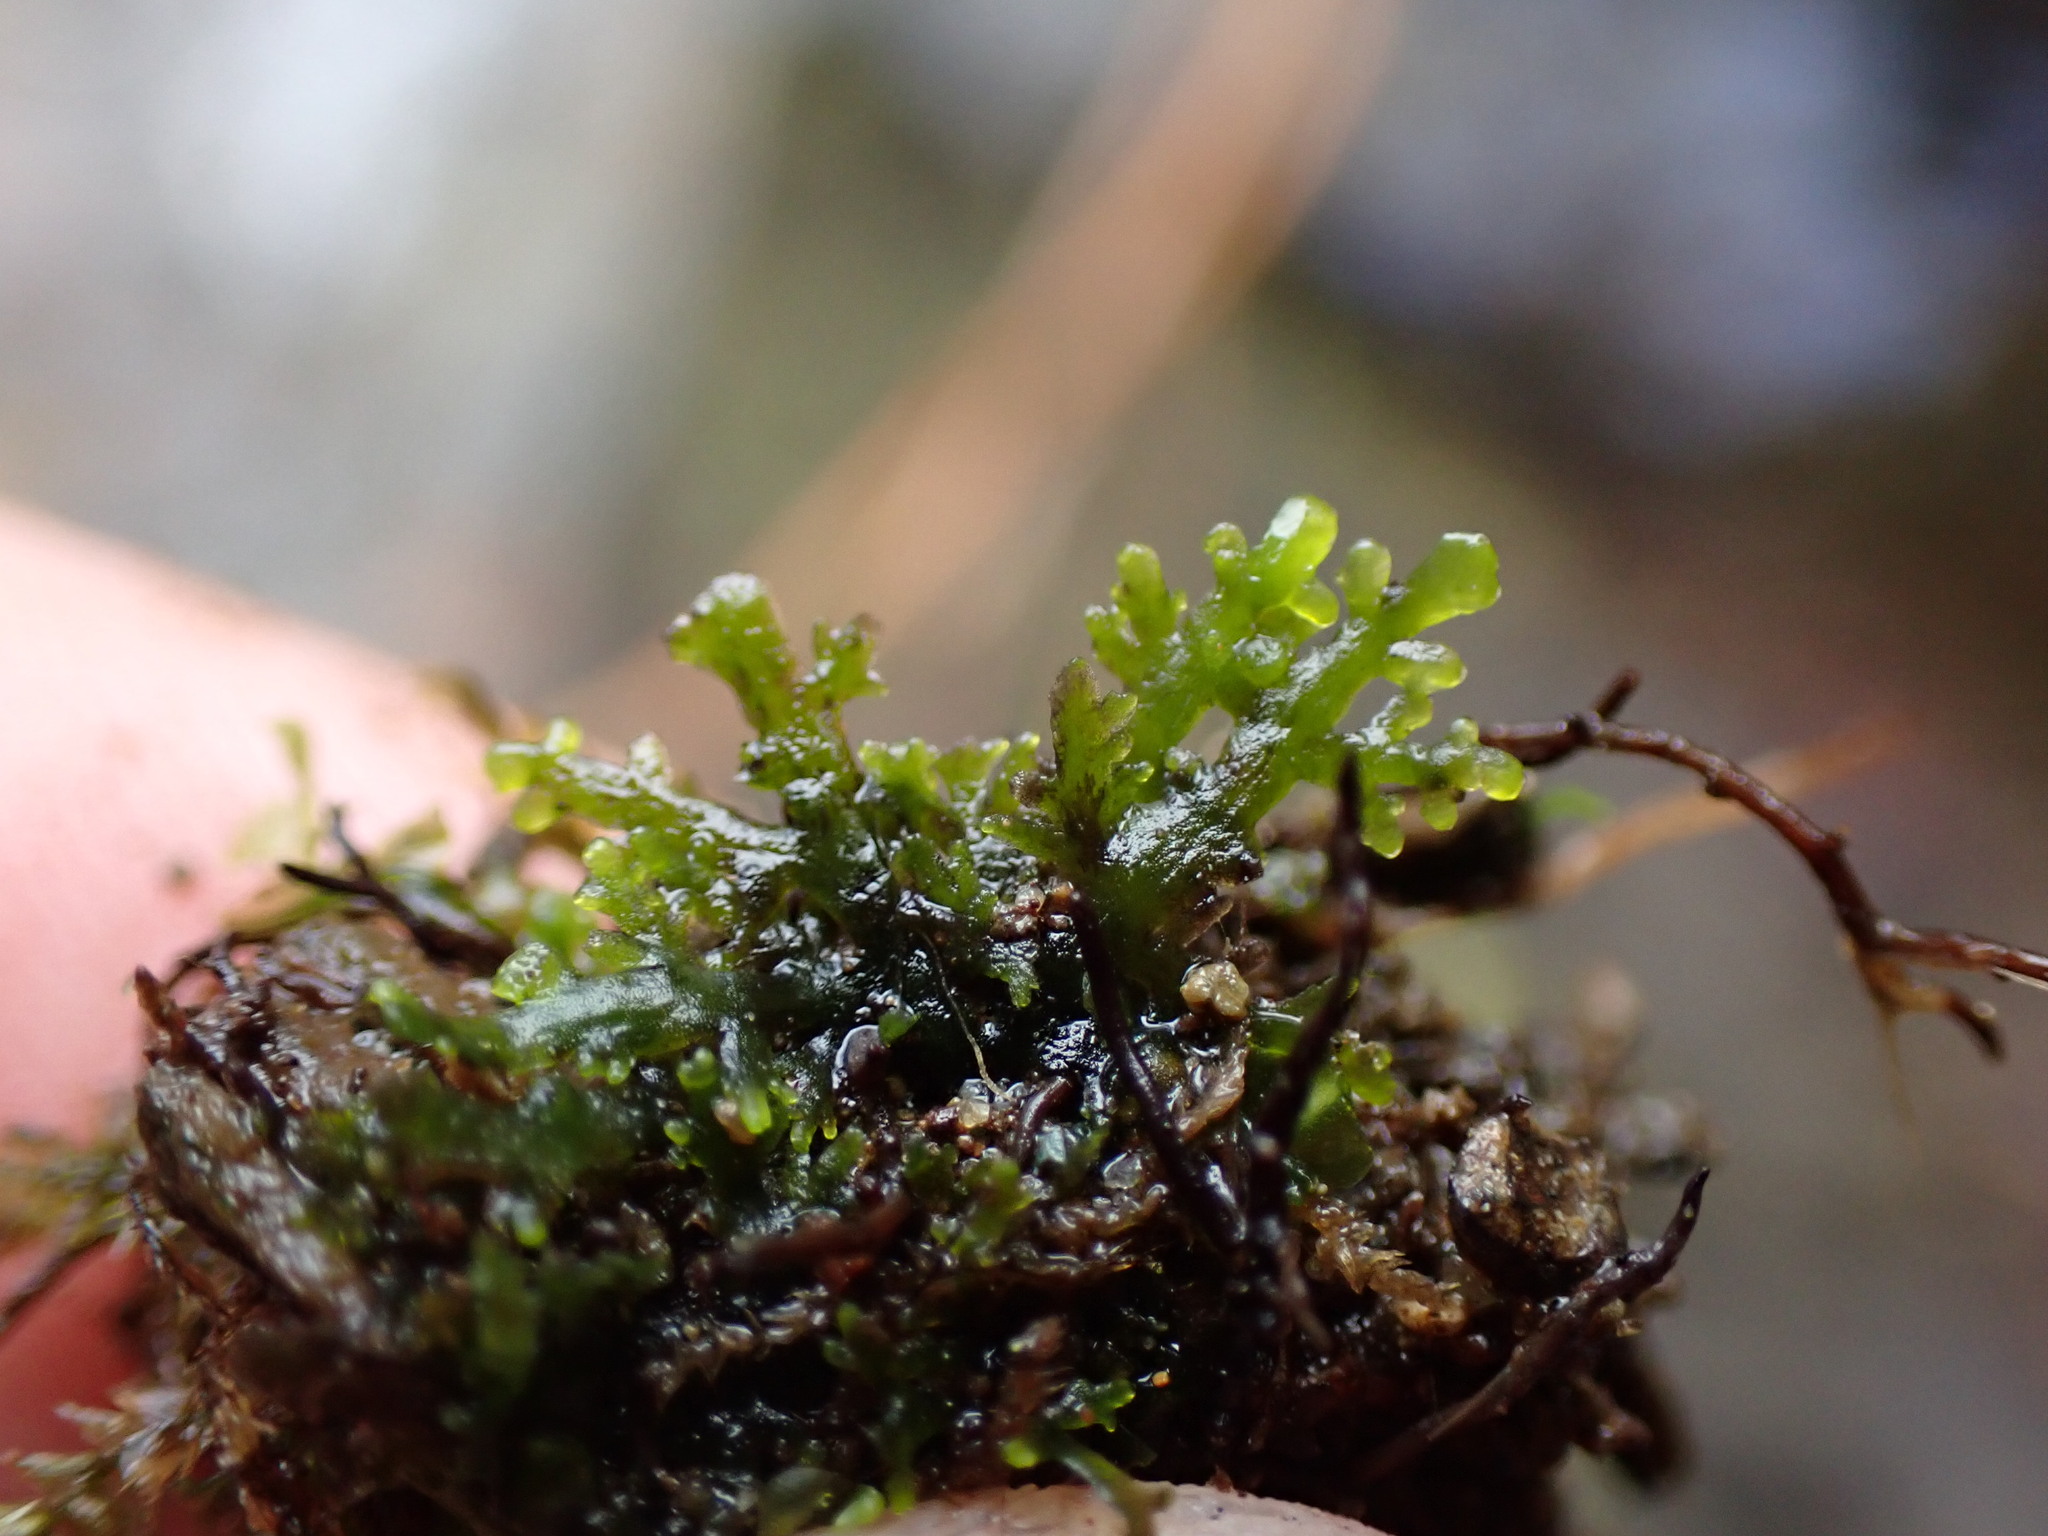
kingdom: Plantae
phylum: Marchantiophyta
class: Jungermanniopsida
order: Metzgeriales
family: Aneuraceae
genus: Riccardia
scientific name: Riccardia chamedryfolia
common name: Jagged germanderwort
